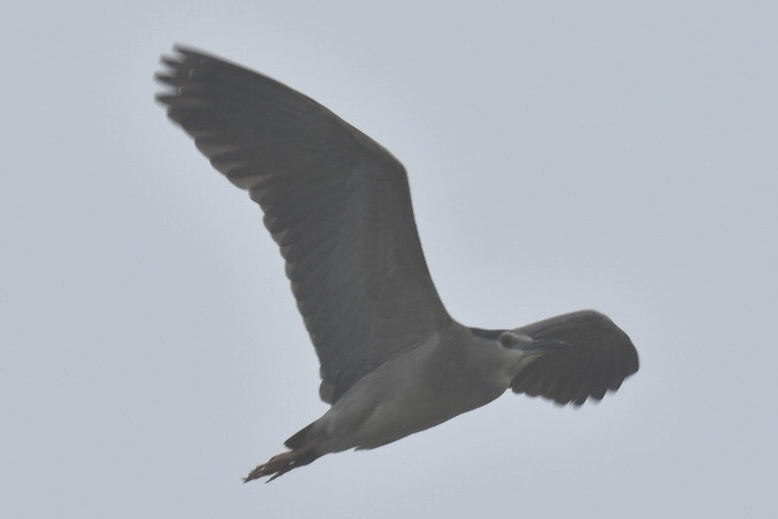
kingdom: Animalia
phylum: Chordata
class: Aves
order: Pelecaniformes
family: Ardeidae
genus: Nycticorax
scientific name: Nycticorax nycticorax
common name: Black-crowned night heron
